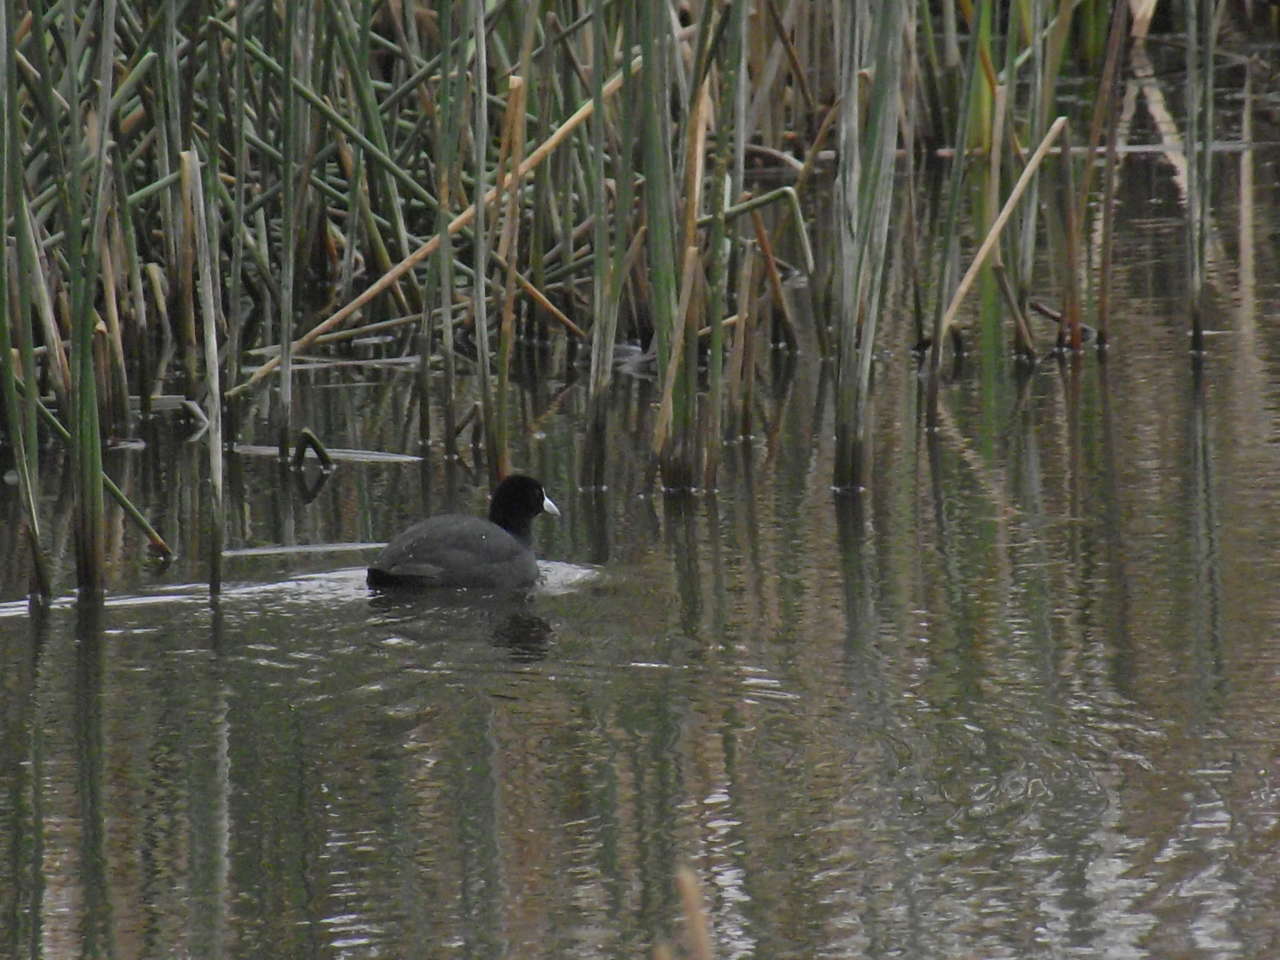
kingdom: Animalia
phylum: Chordata
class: Aves
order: Gruiformes
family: Rallidae
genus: Fulica
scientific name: Fulica atra
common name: Eurasian coot
